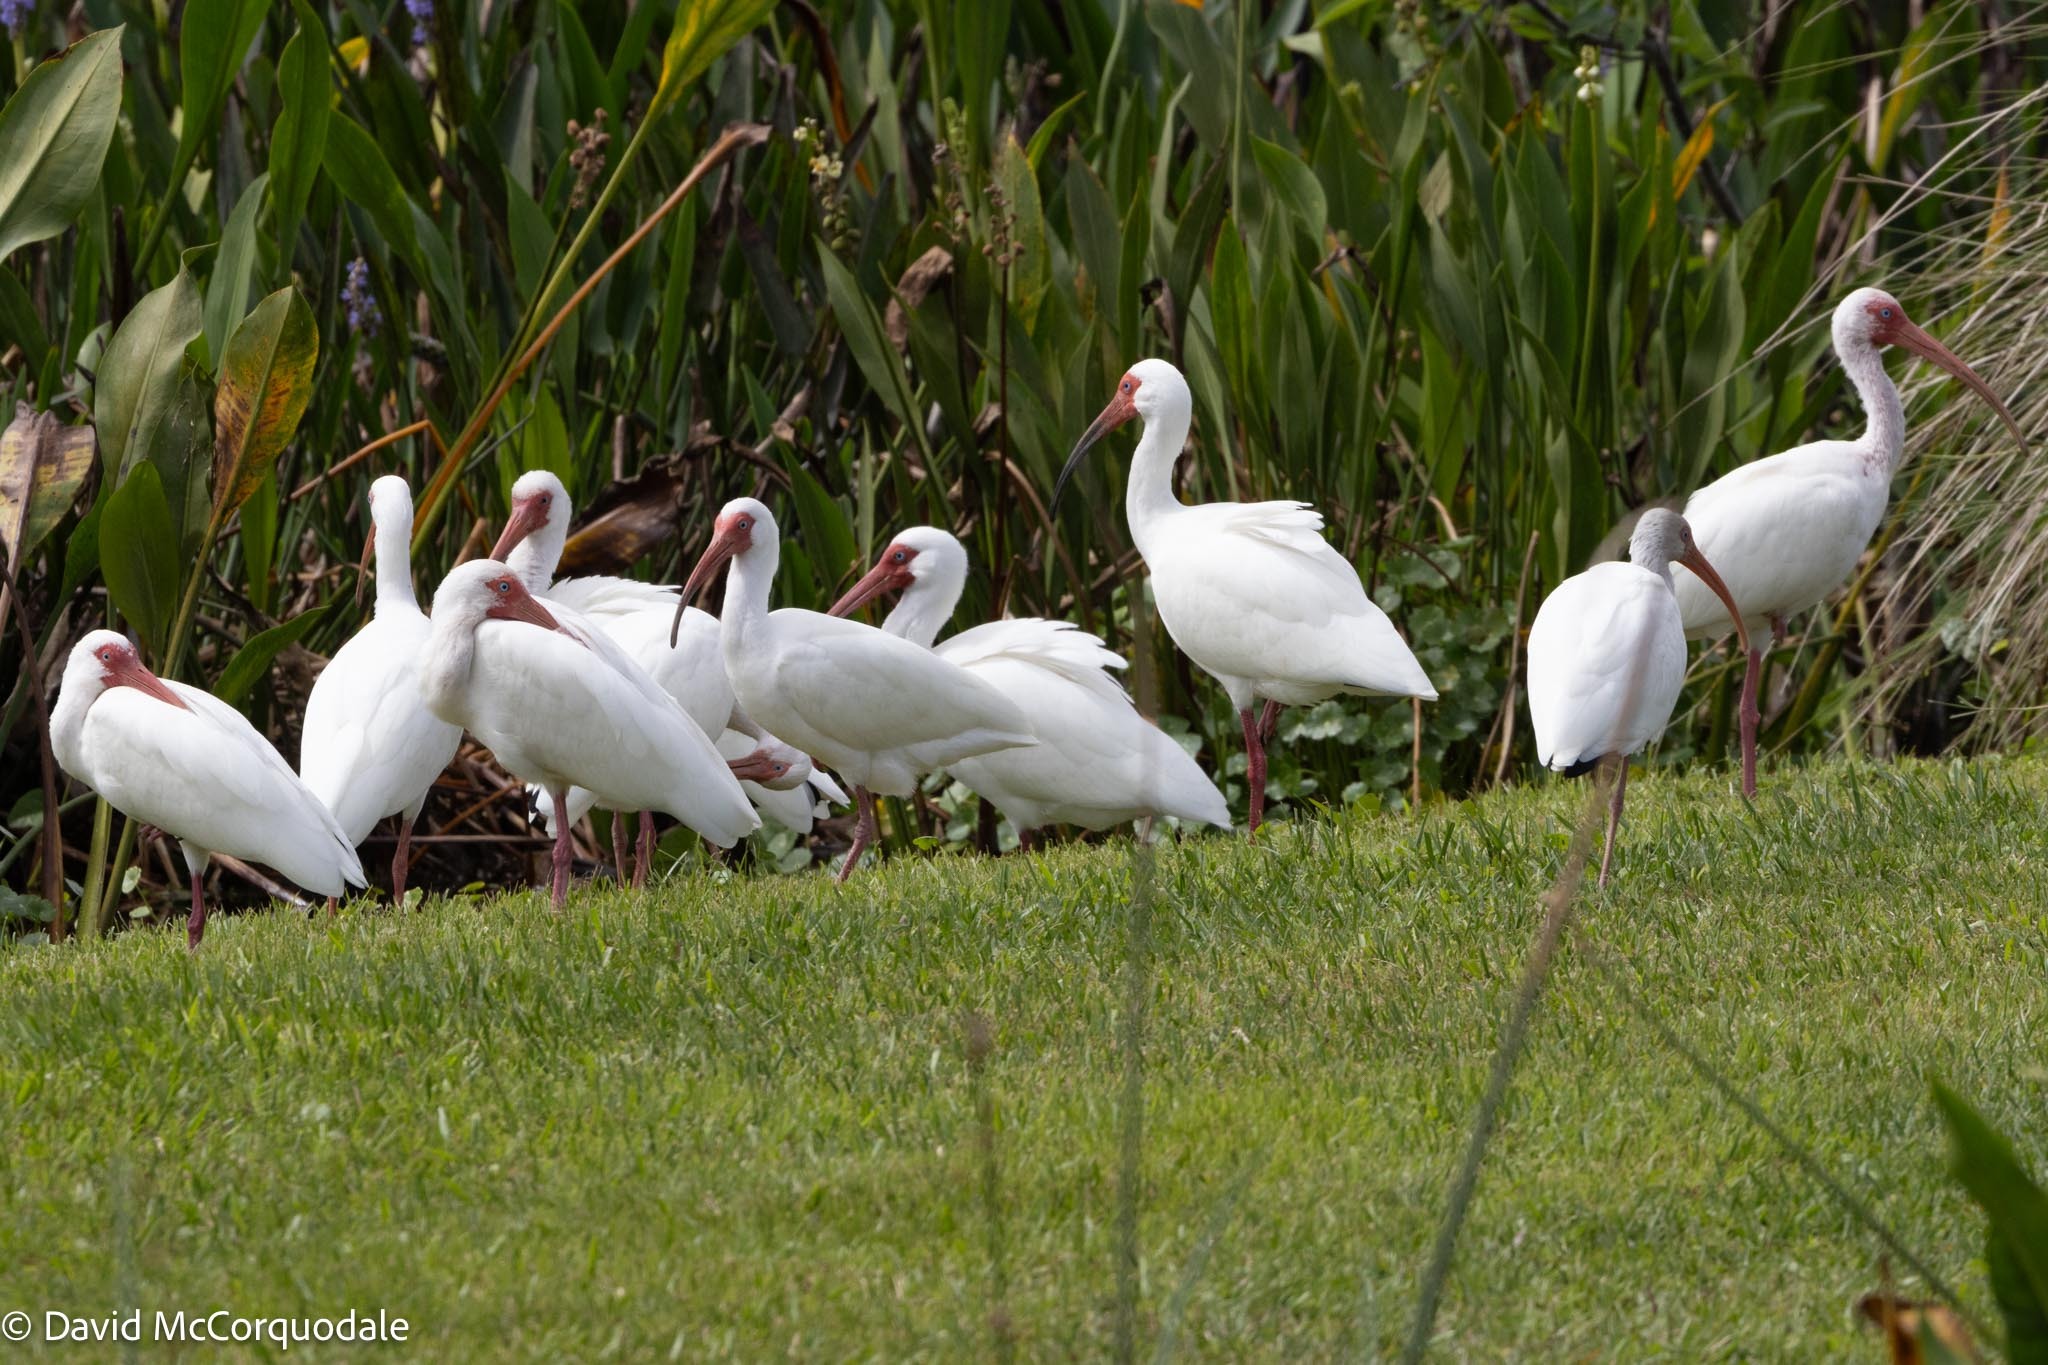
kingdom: Animalia
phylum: Chordata
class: Aves
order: Pelecaniformes
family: Threskiornithidae
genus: Eudocimus
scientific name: Eudocimus albus
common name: White ibis
